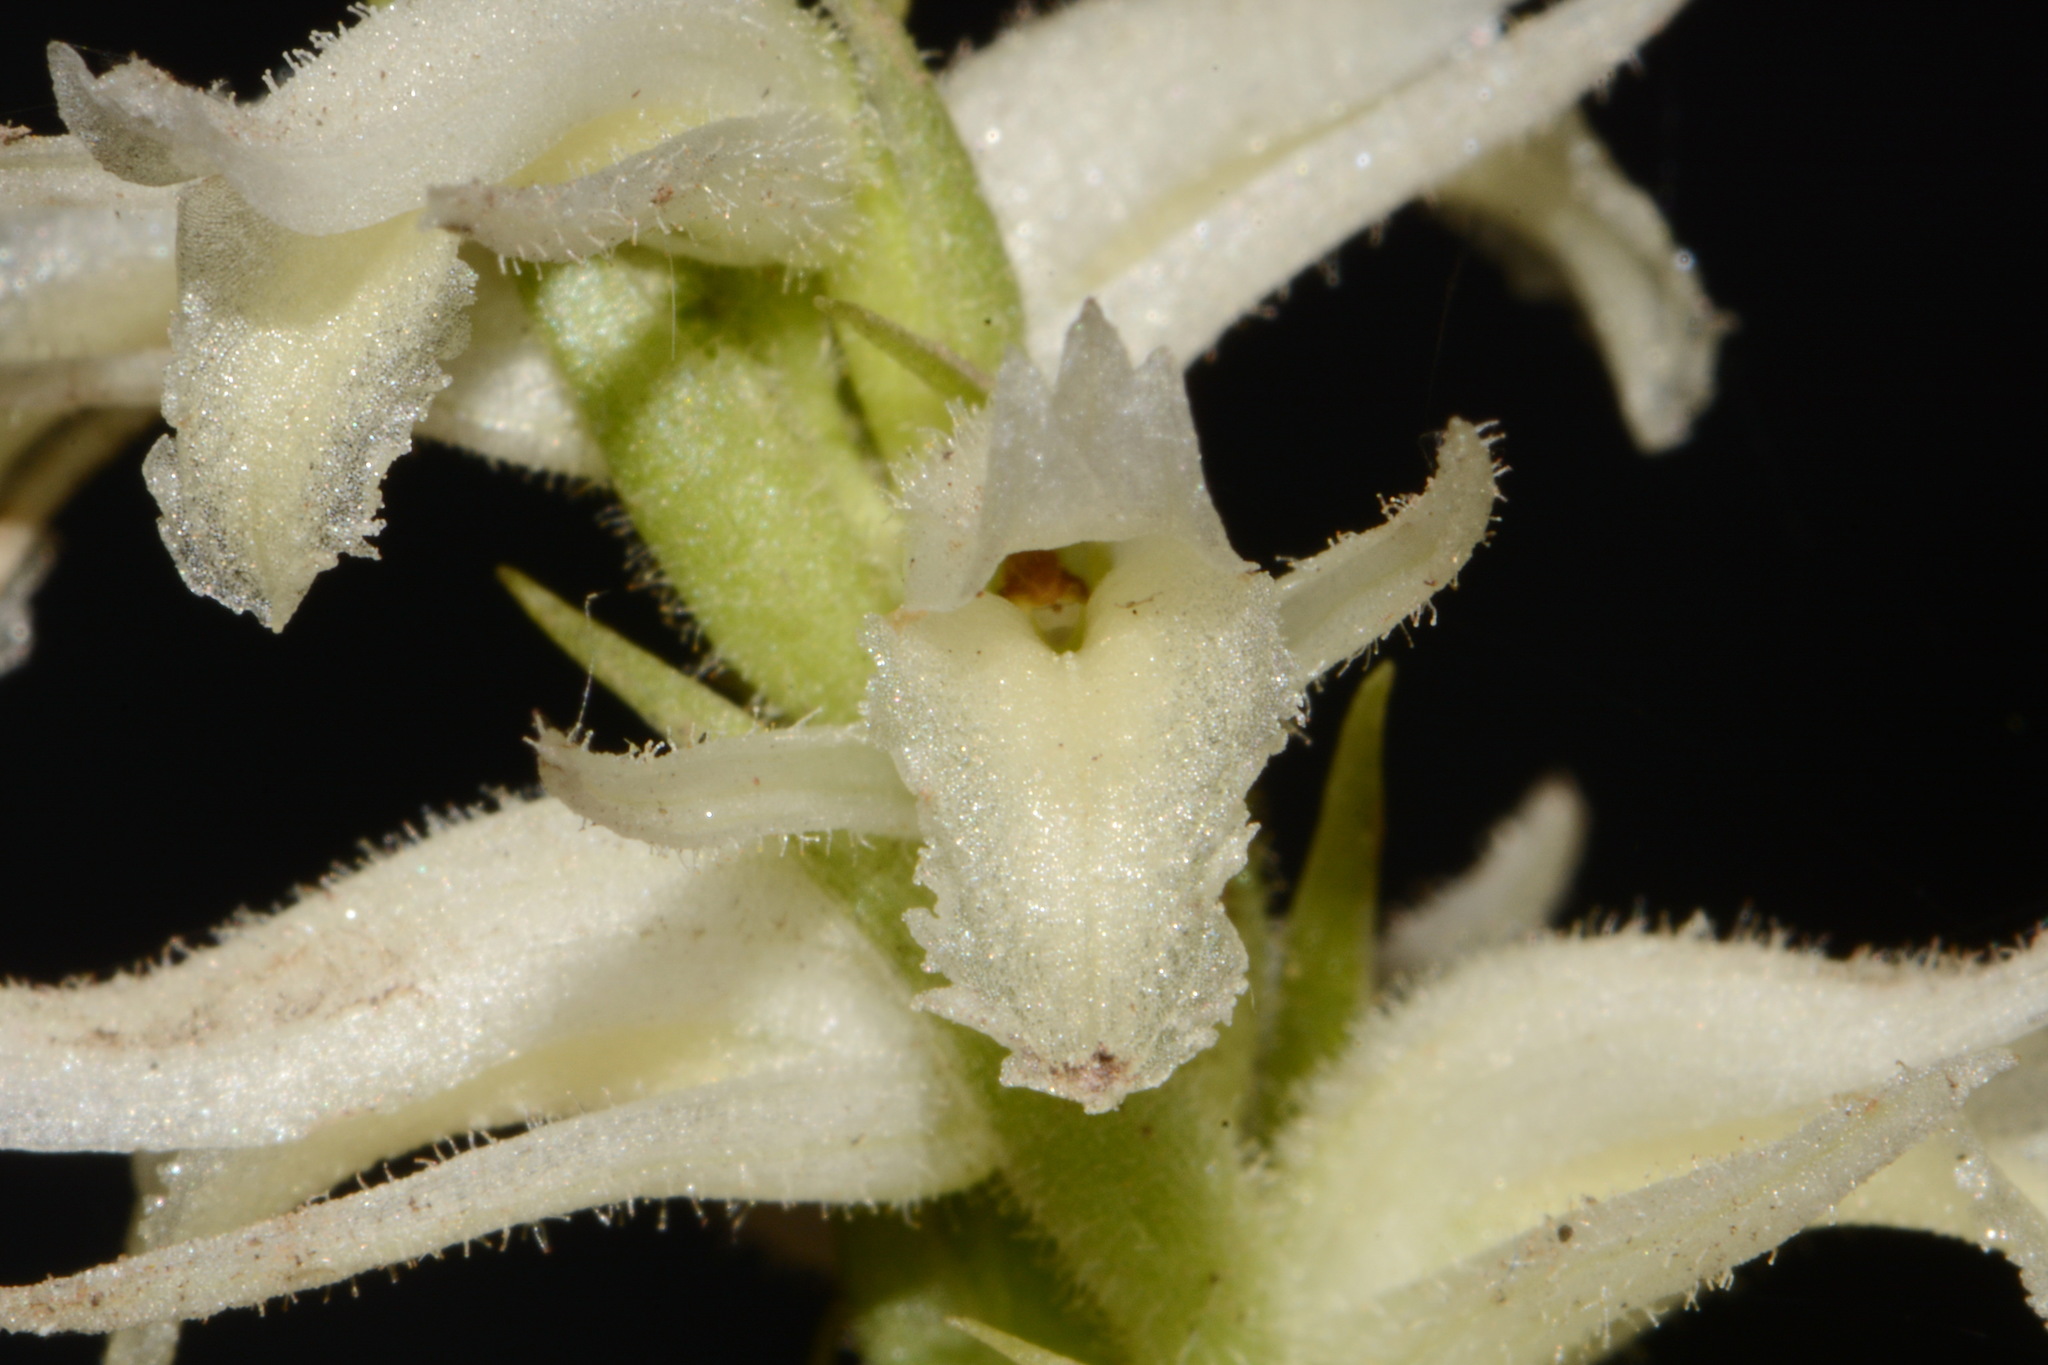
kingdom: Plantae
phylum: Tracheophyta
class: Liliopsida
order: Asparagales
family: Orchidaceae
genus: Spiranthes
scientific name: Spiranthes odorata
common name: Marsh ladies'-tresses
